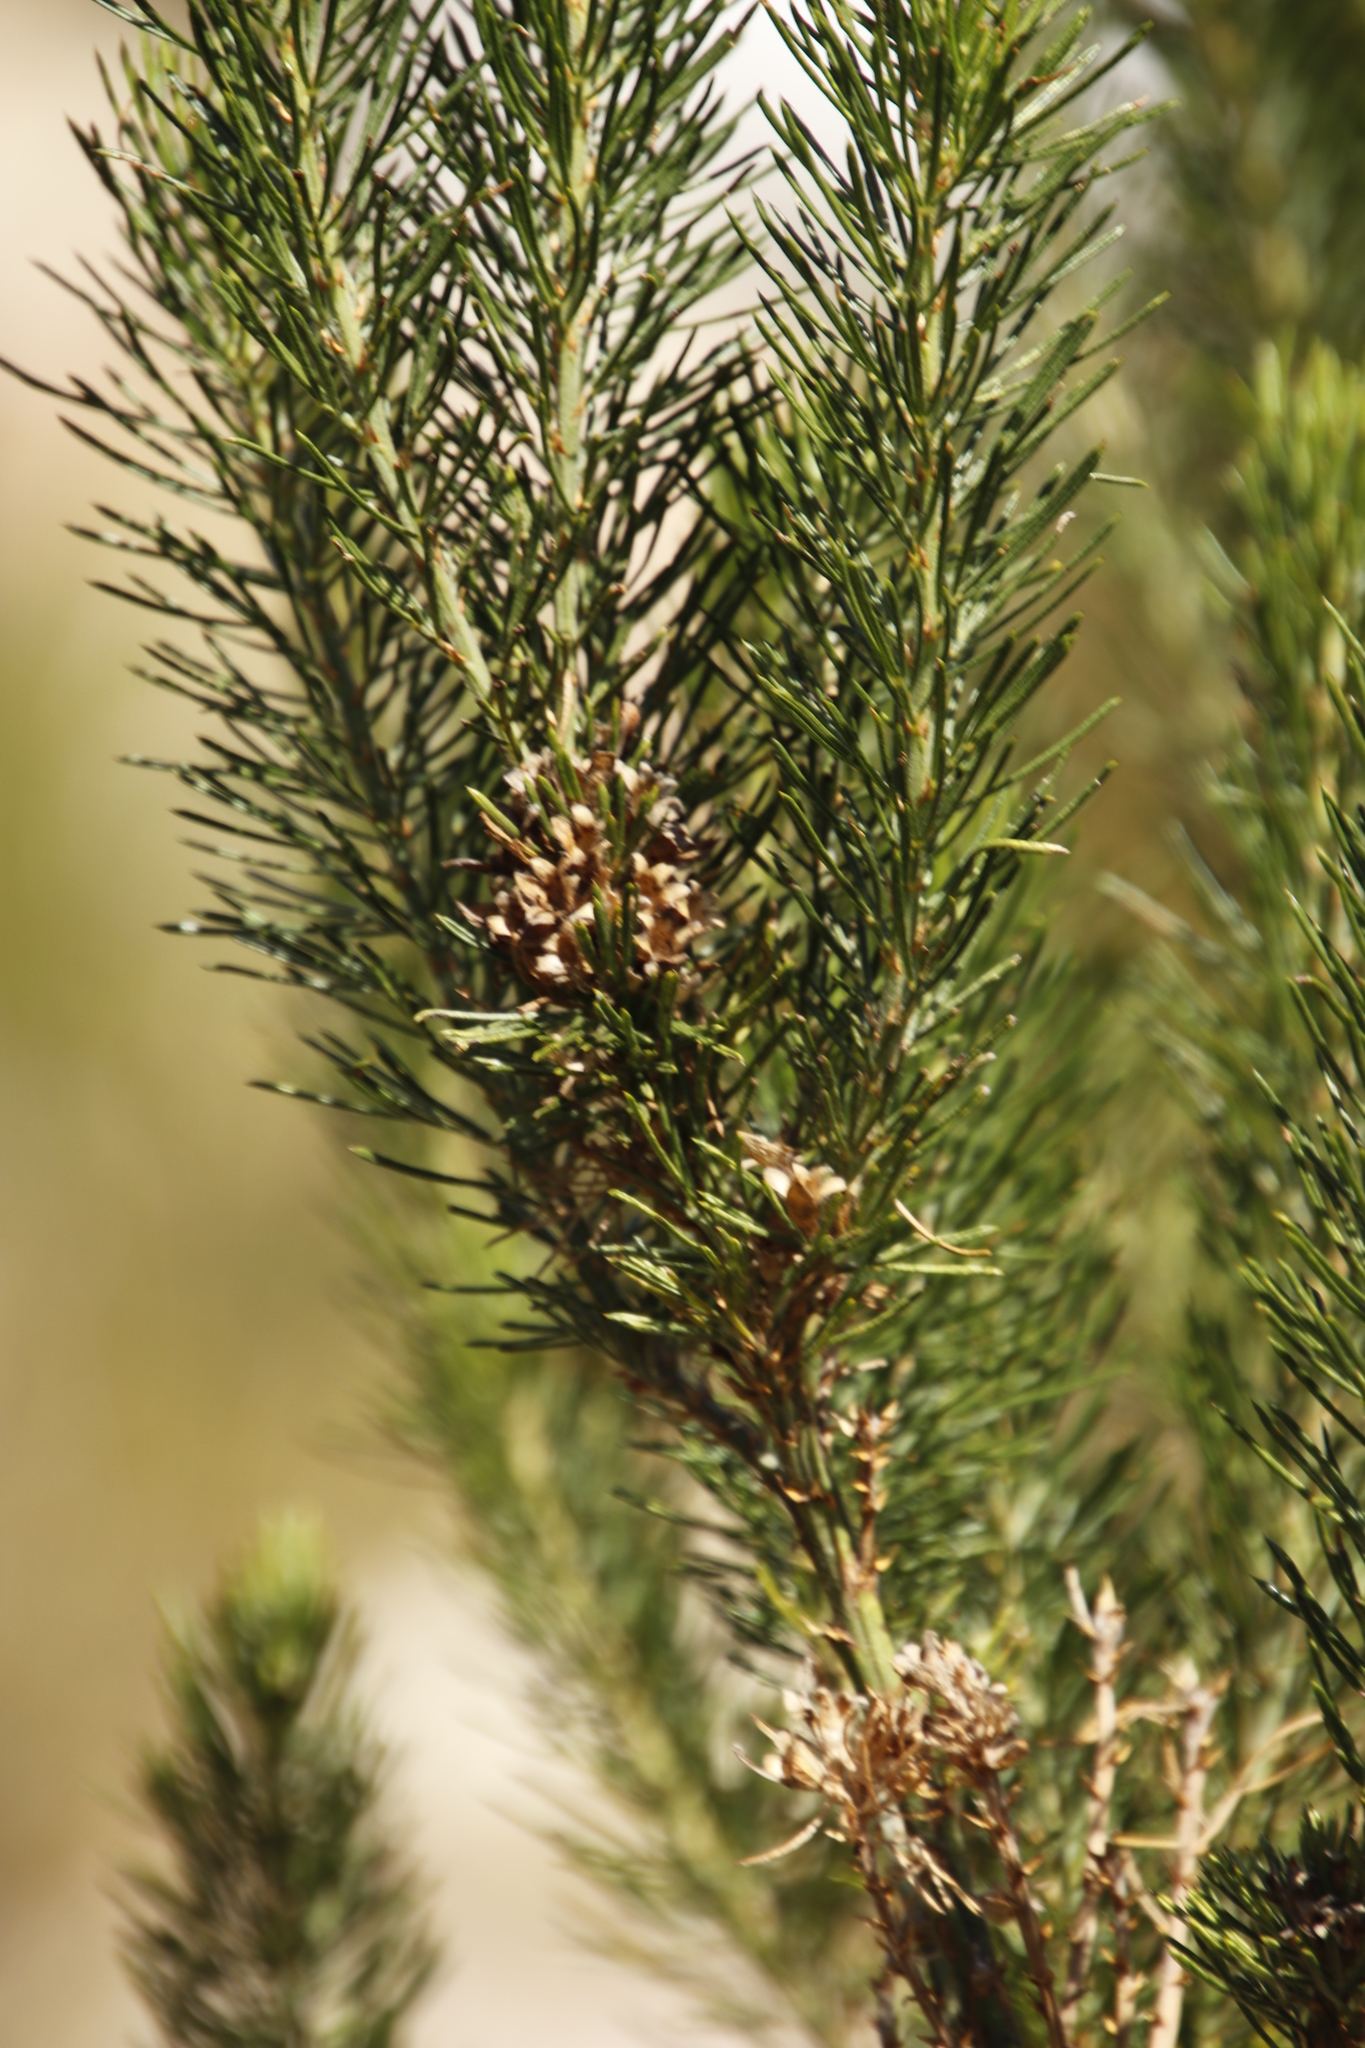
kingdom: Plantae
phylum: Tracheophyta
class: Magnoliopsida
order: Fabales
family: Fabaceae
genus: Psoralea
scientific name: Psoralea pinnata
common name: African scurfpea
